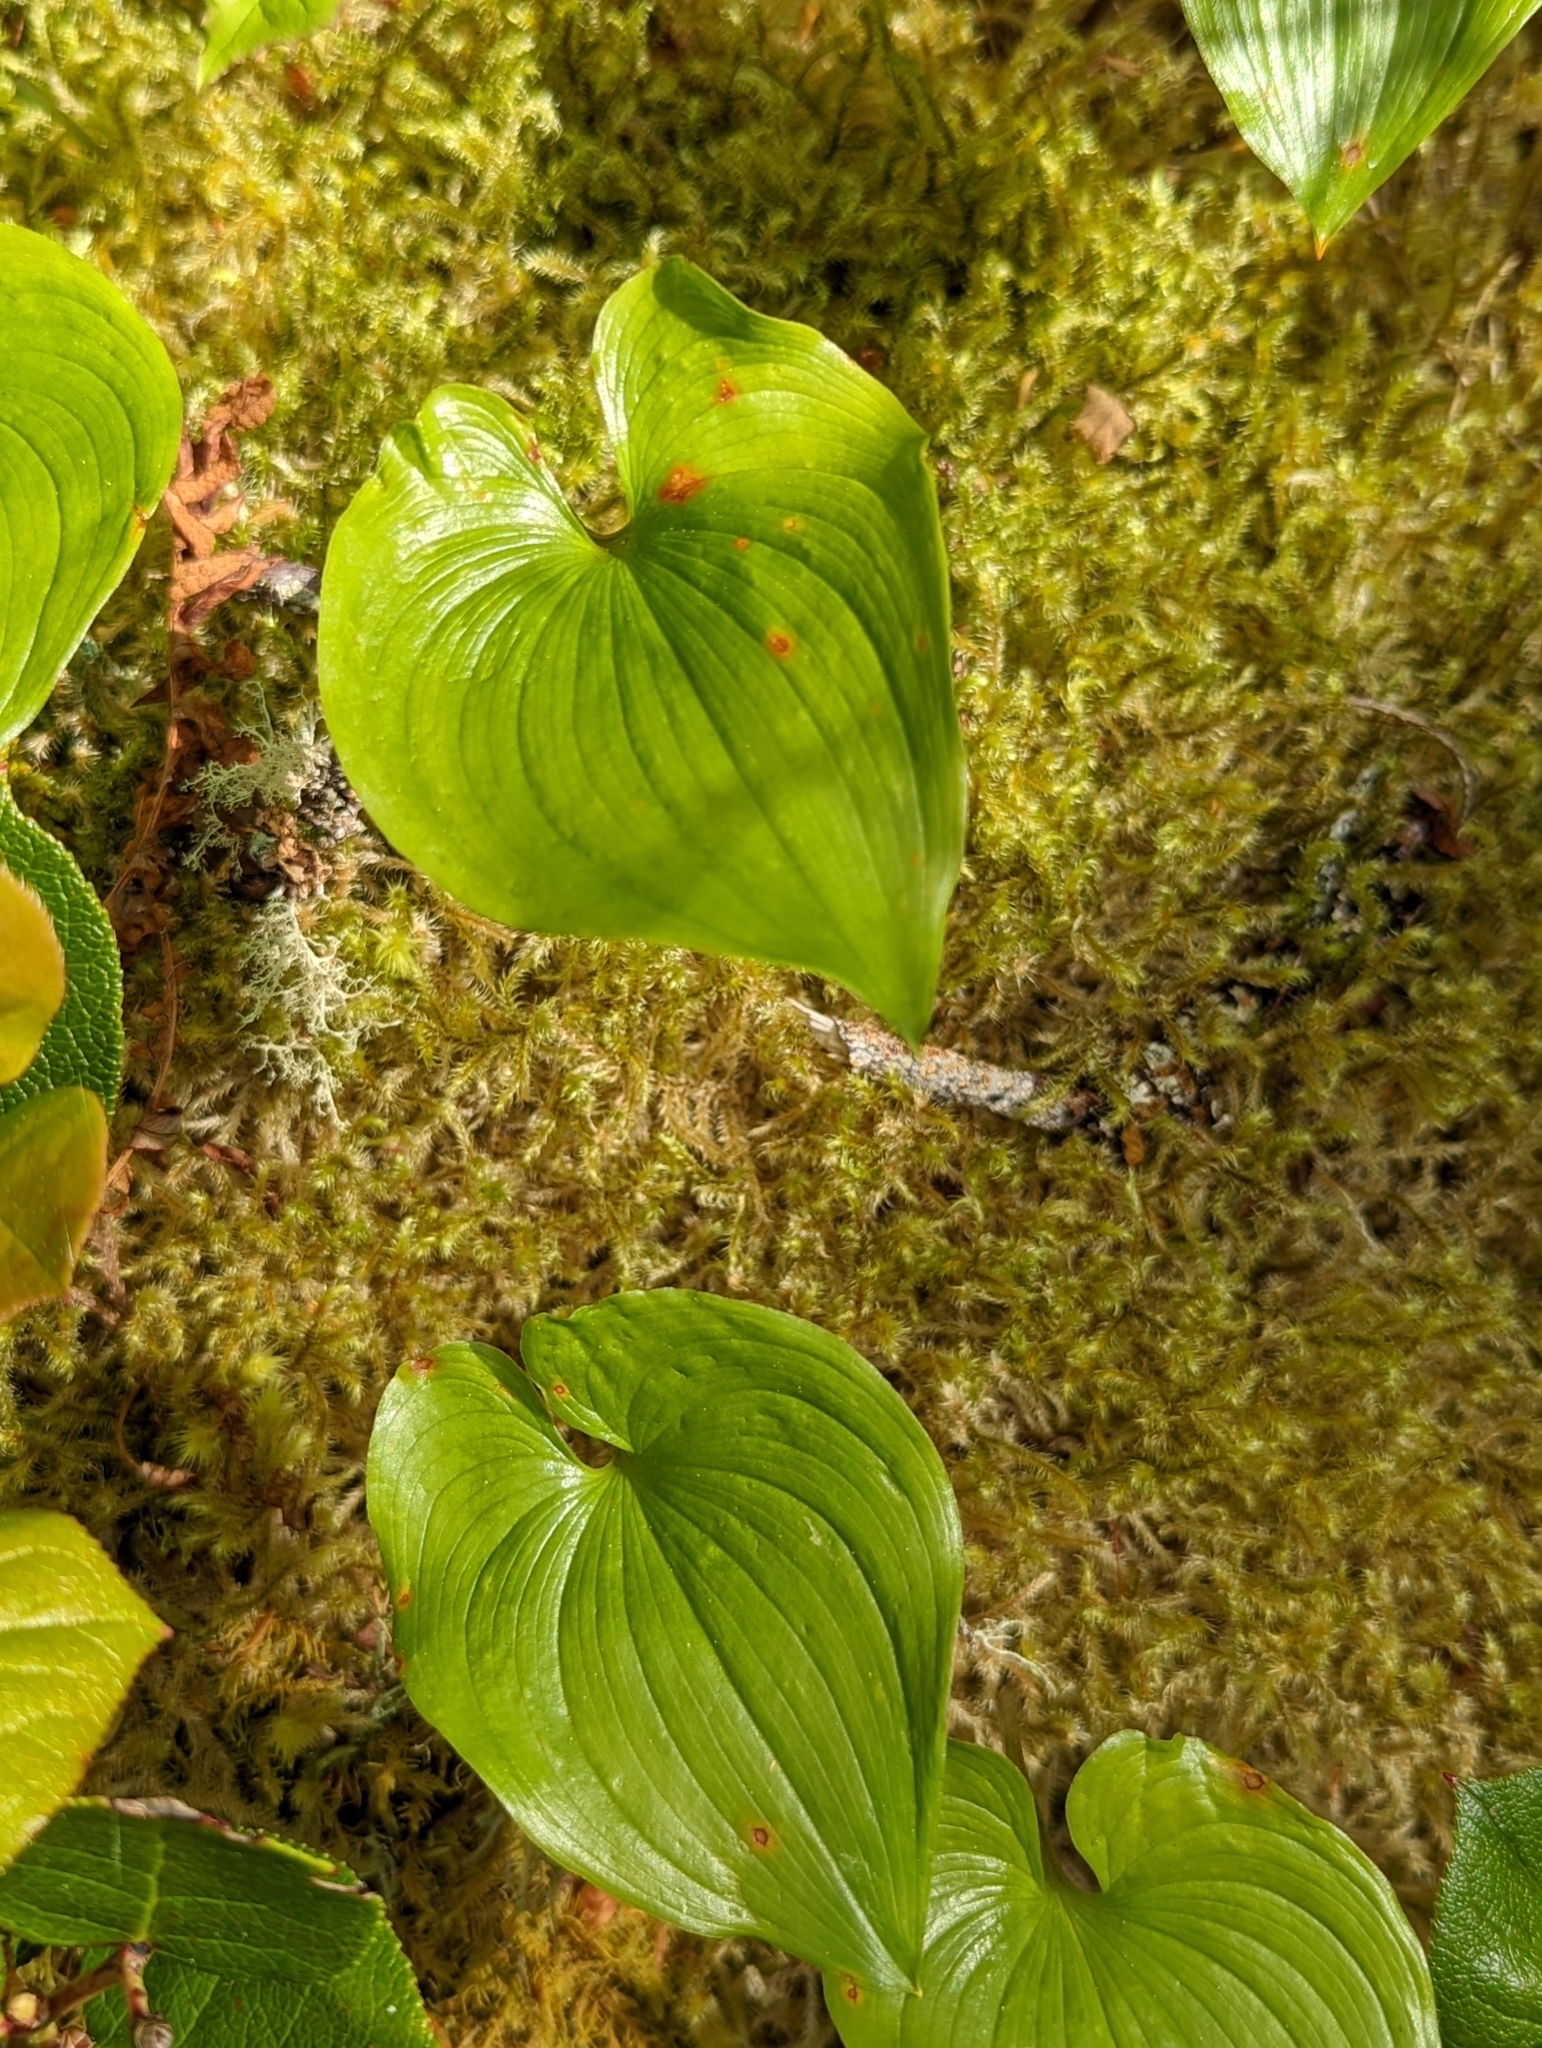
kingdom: Plantae
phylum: Tracheophyta
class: Liliopsida
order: Asparagales
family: Asparagaceae
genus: Maianthemum
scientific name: Maianthemum dilatatum
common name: False lily-of-the-valley
